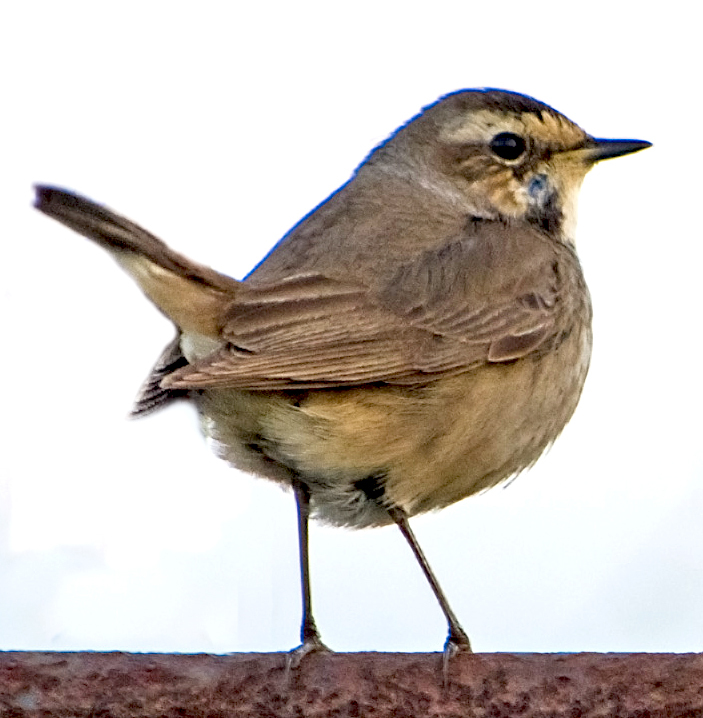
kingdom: Animalia
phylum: Chordata
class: Aves
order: Passeriformes
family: Muscicapidae
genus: Luscinia
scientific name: Luscinia svecica
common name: Bluethroat
